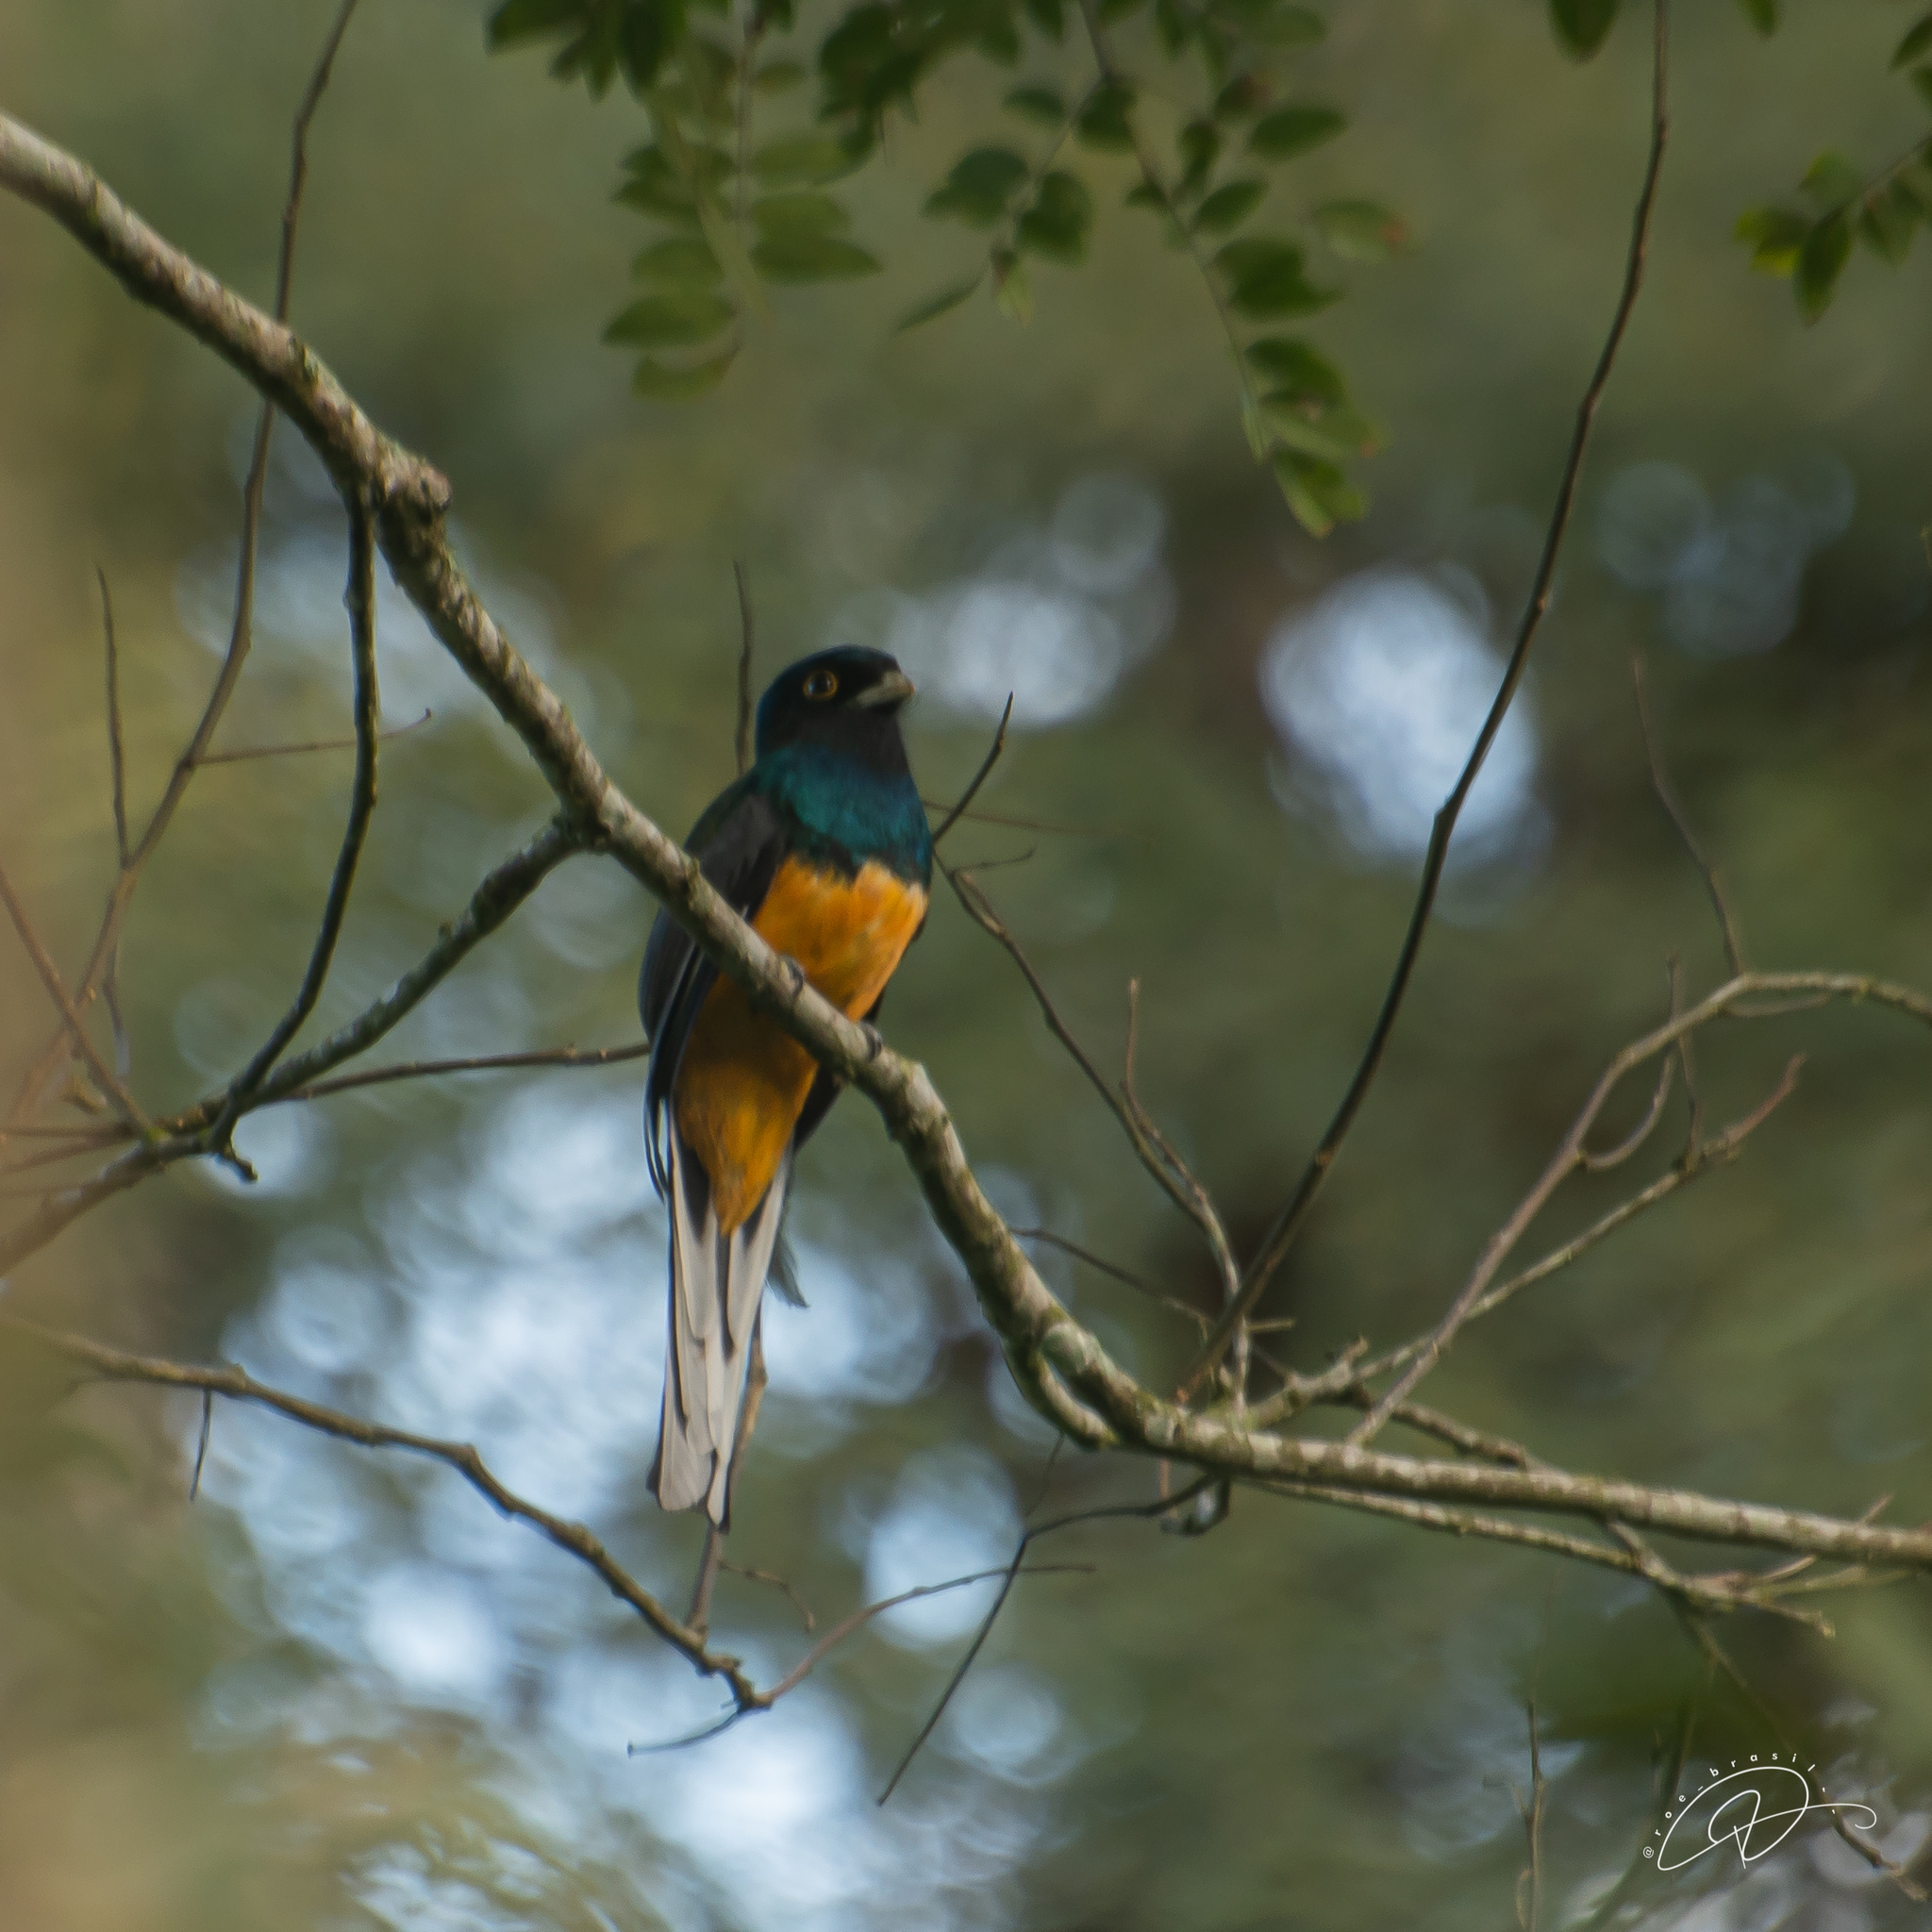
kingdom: Animalia
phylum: Chordata
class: Aves
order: Trogoniformes
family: Trogonidae
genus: Trogon
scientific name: Trogon surrucura
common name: Surucua trogon
